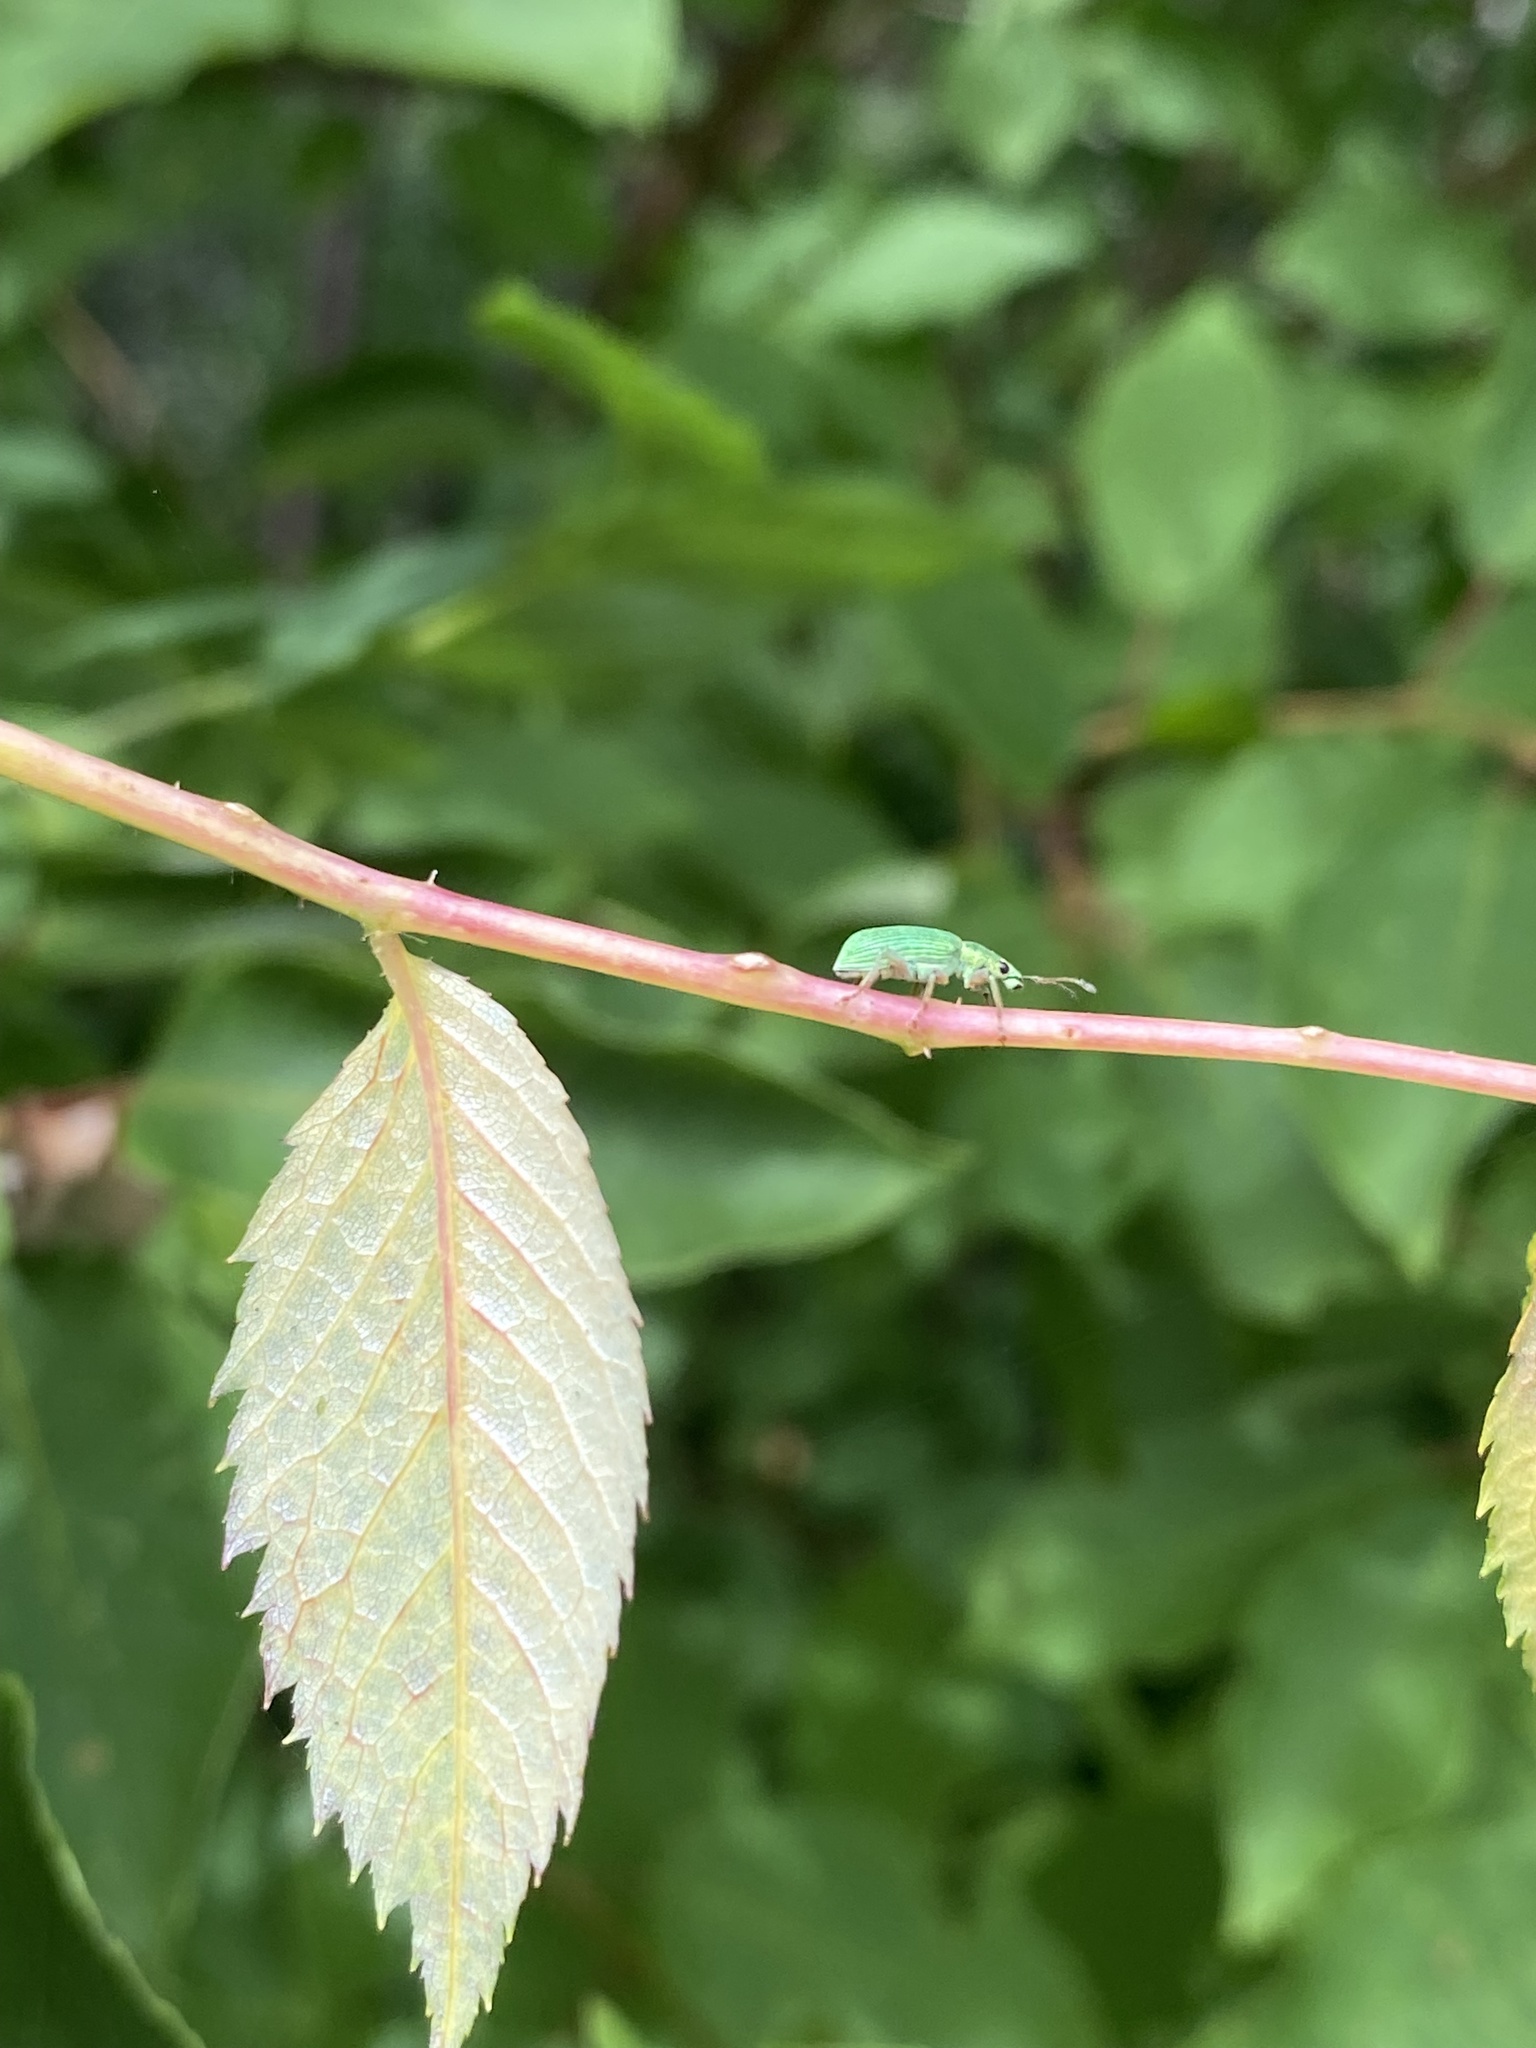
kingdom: Animalia
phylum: Arthropoda
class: Insecta
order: Coleoptera
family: Curculionidae
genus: Polydrusus
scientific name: Polydrusus formosus
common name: Weevil
